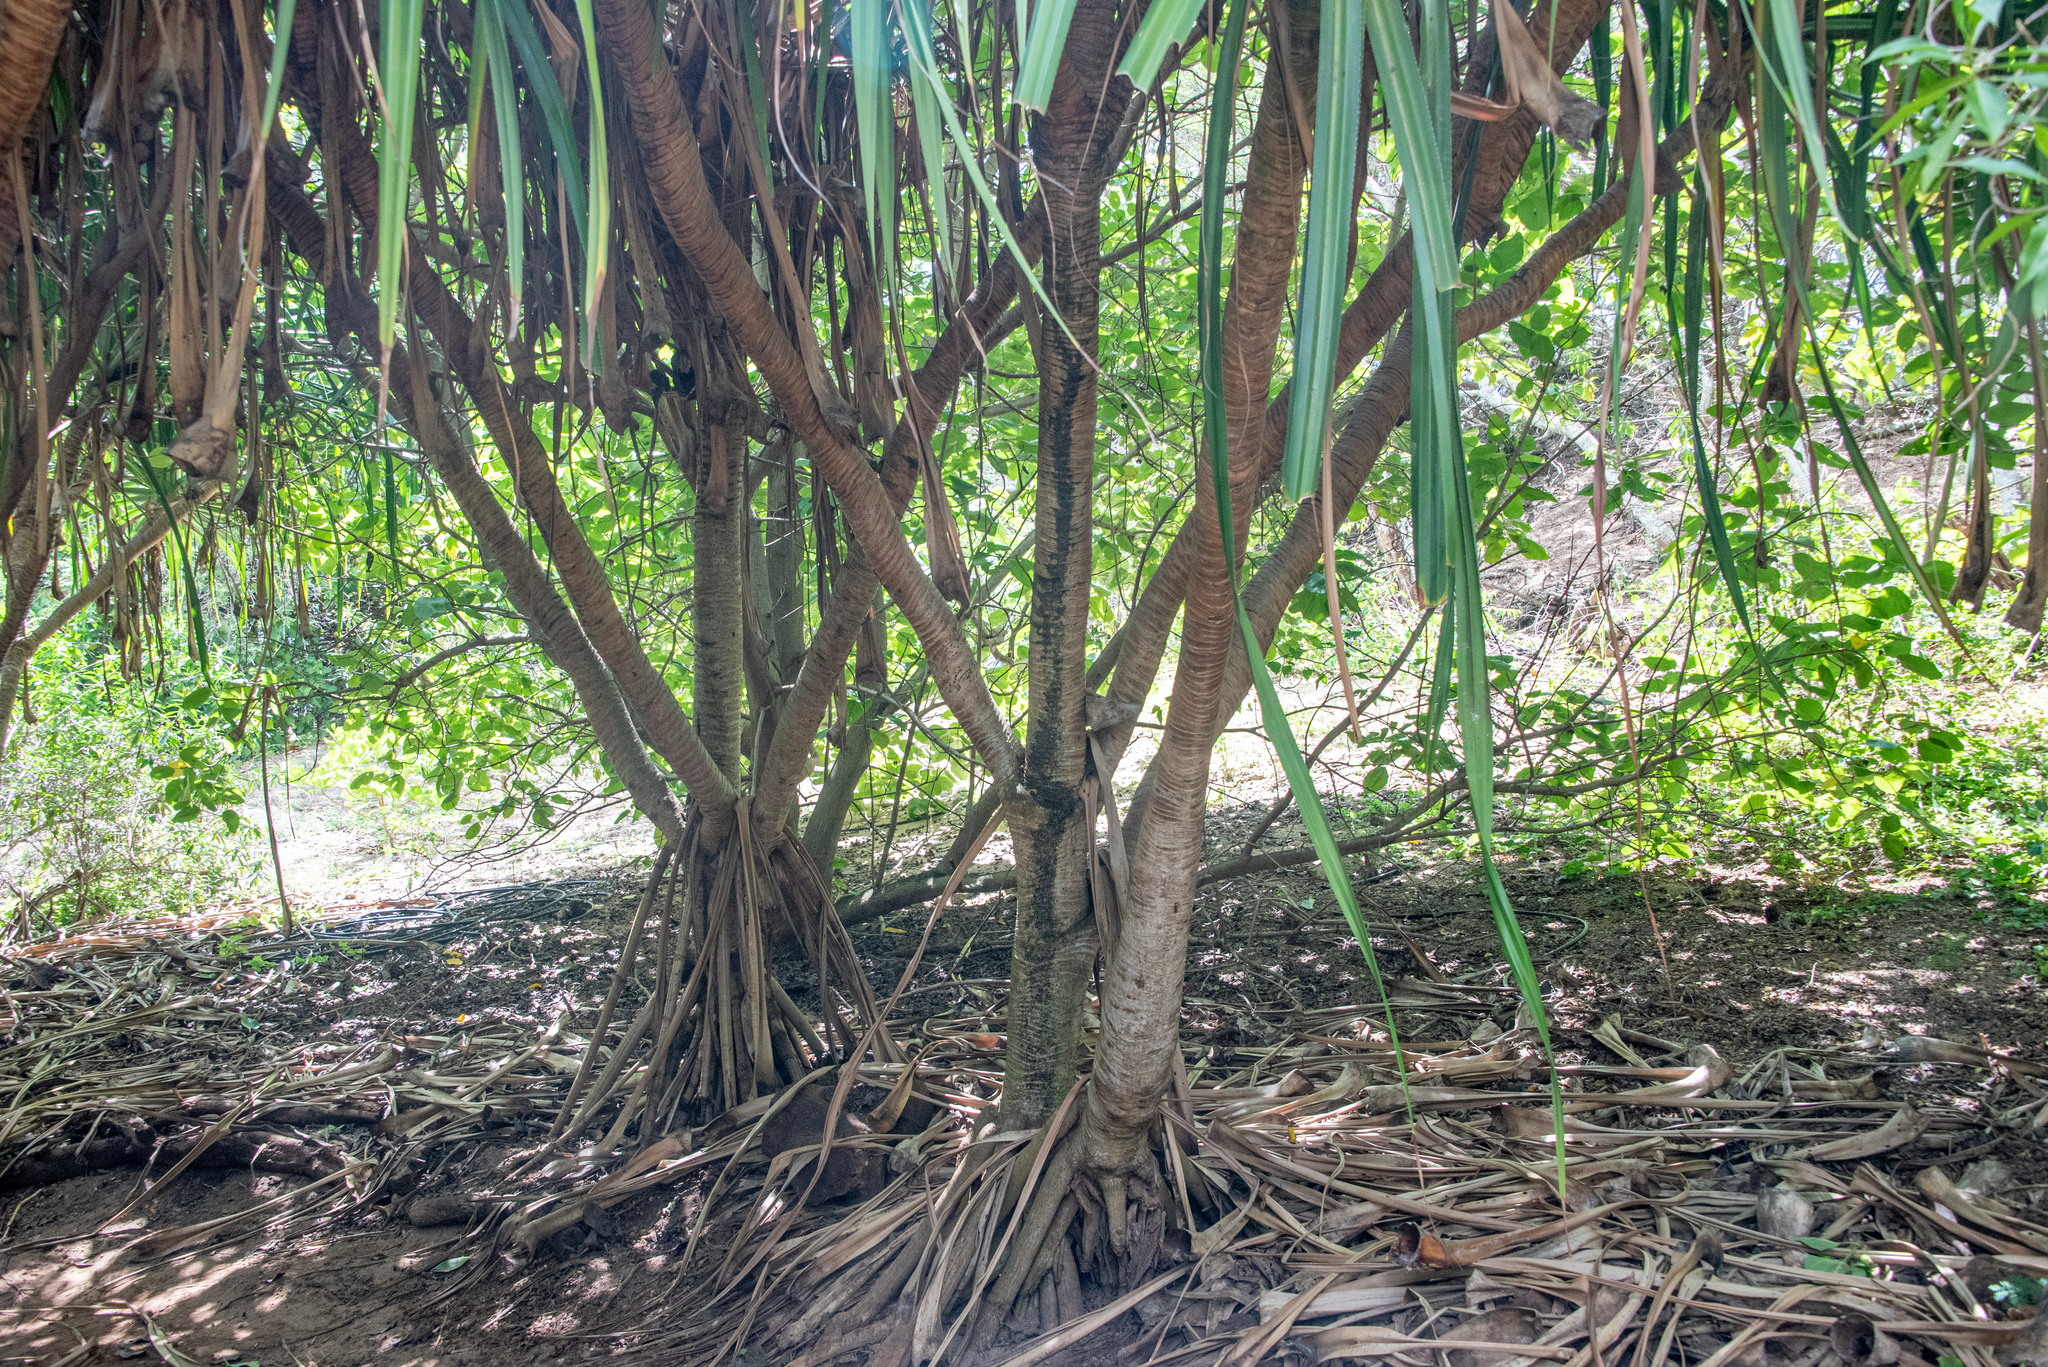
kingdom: Plantae
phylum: Tracheophyta
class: Liliopsida
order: Pandanales
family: Pandanaceae
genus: Pandanus
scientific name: Pandanus tectorius
